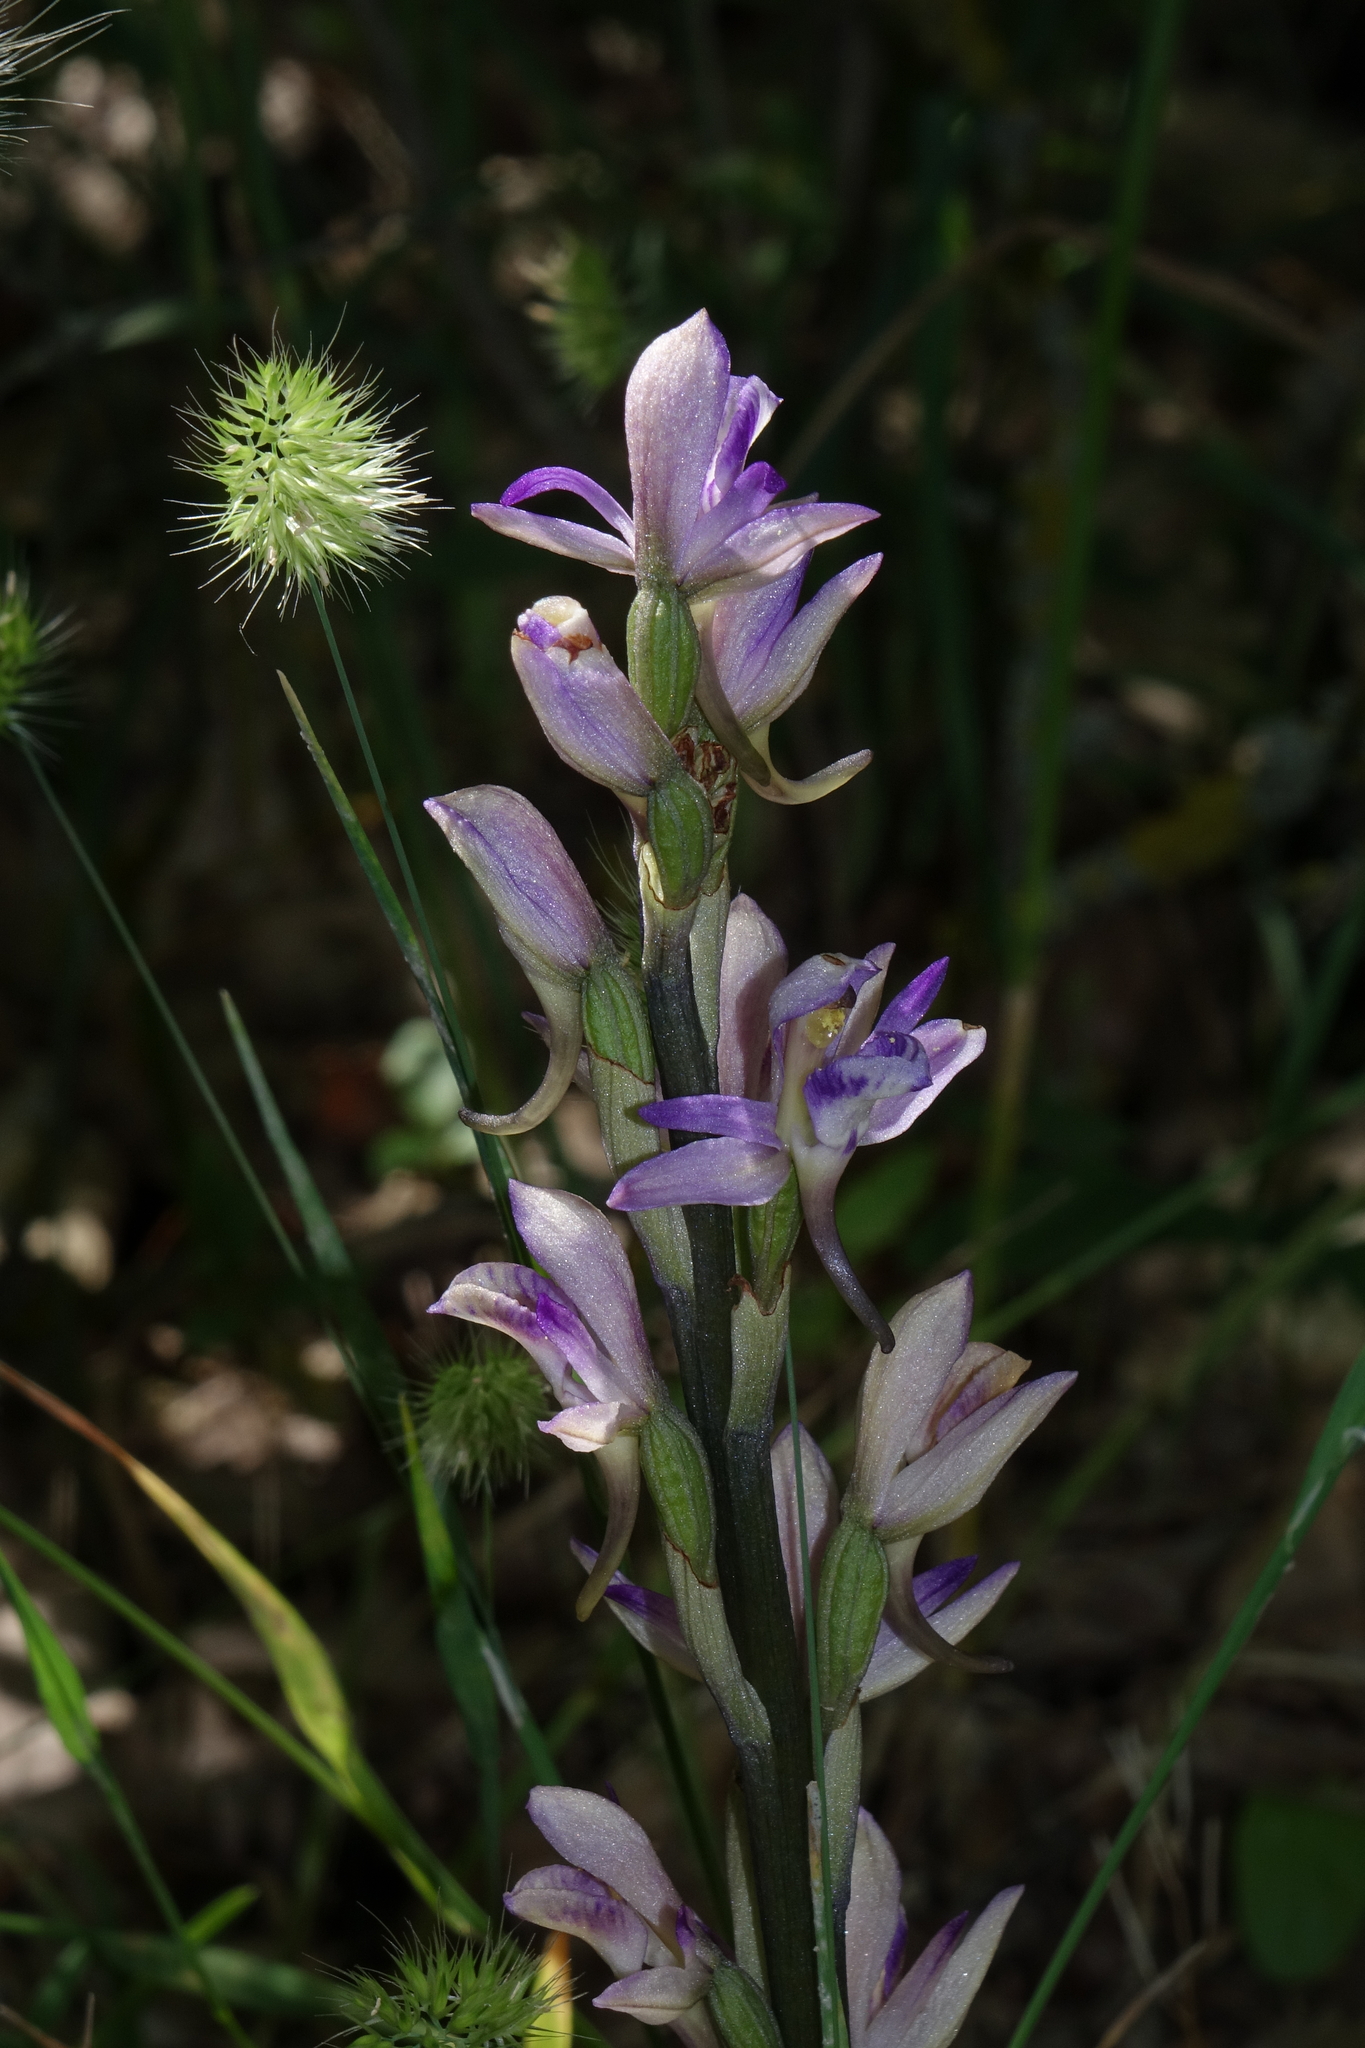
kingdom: Plantae
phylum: Tracheophyta
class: Liliopsida
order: Asparagales
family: Orchidaceae
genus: Limodorum
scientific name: Limodorum abortivum
